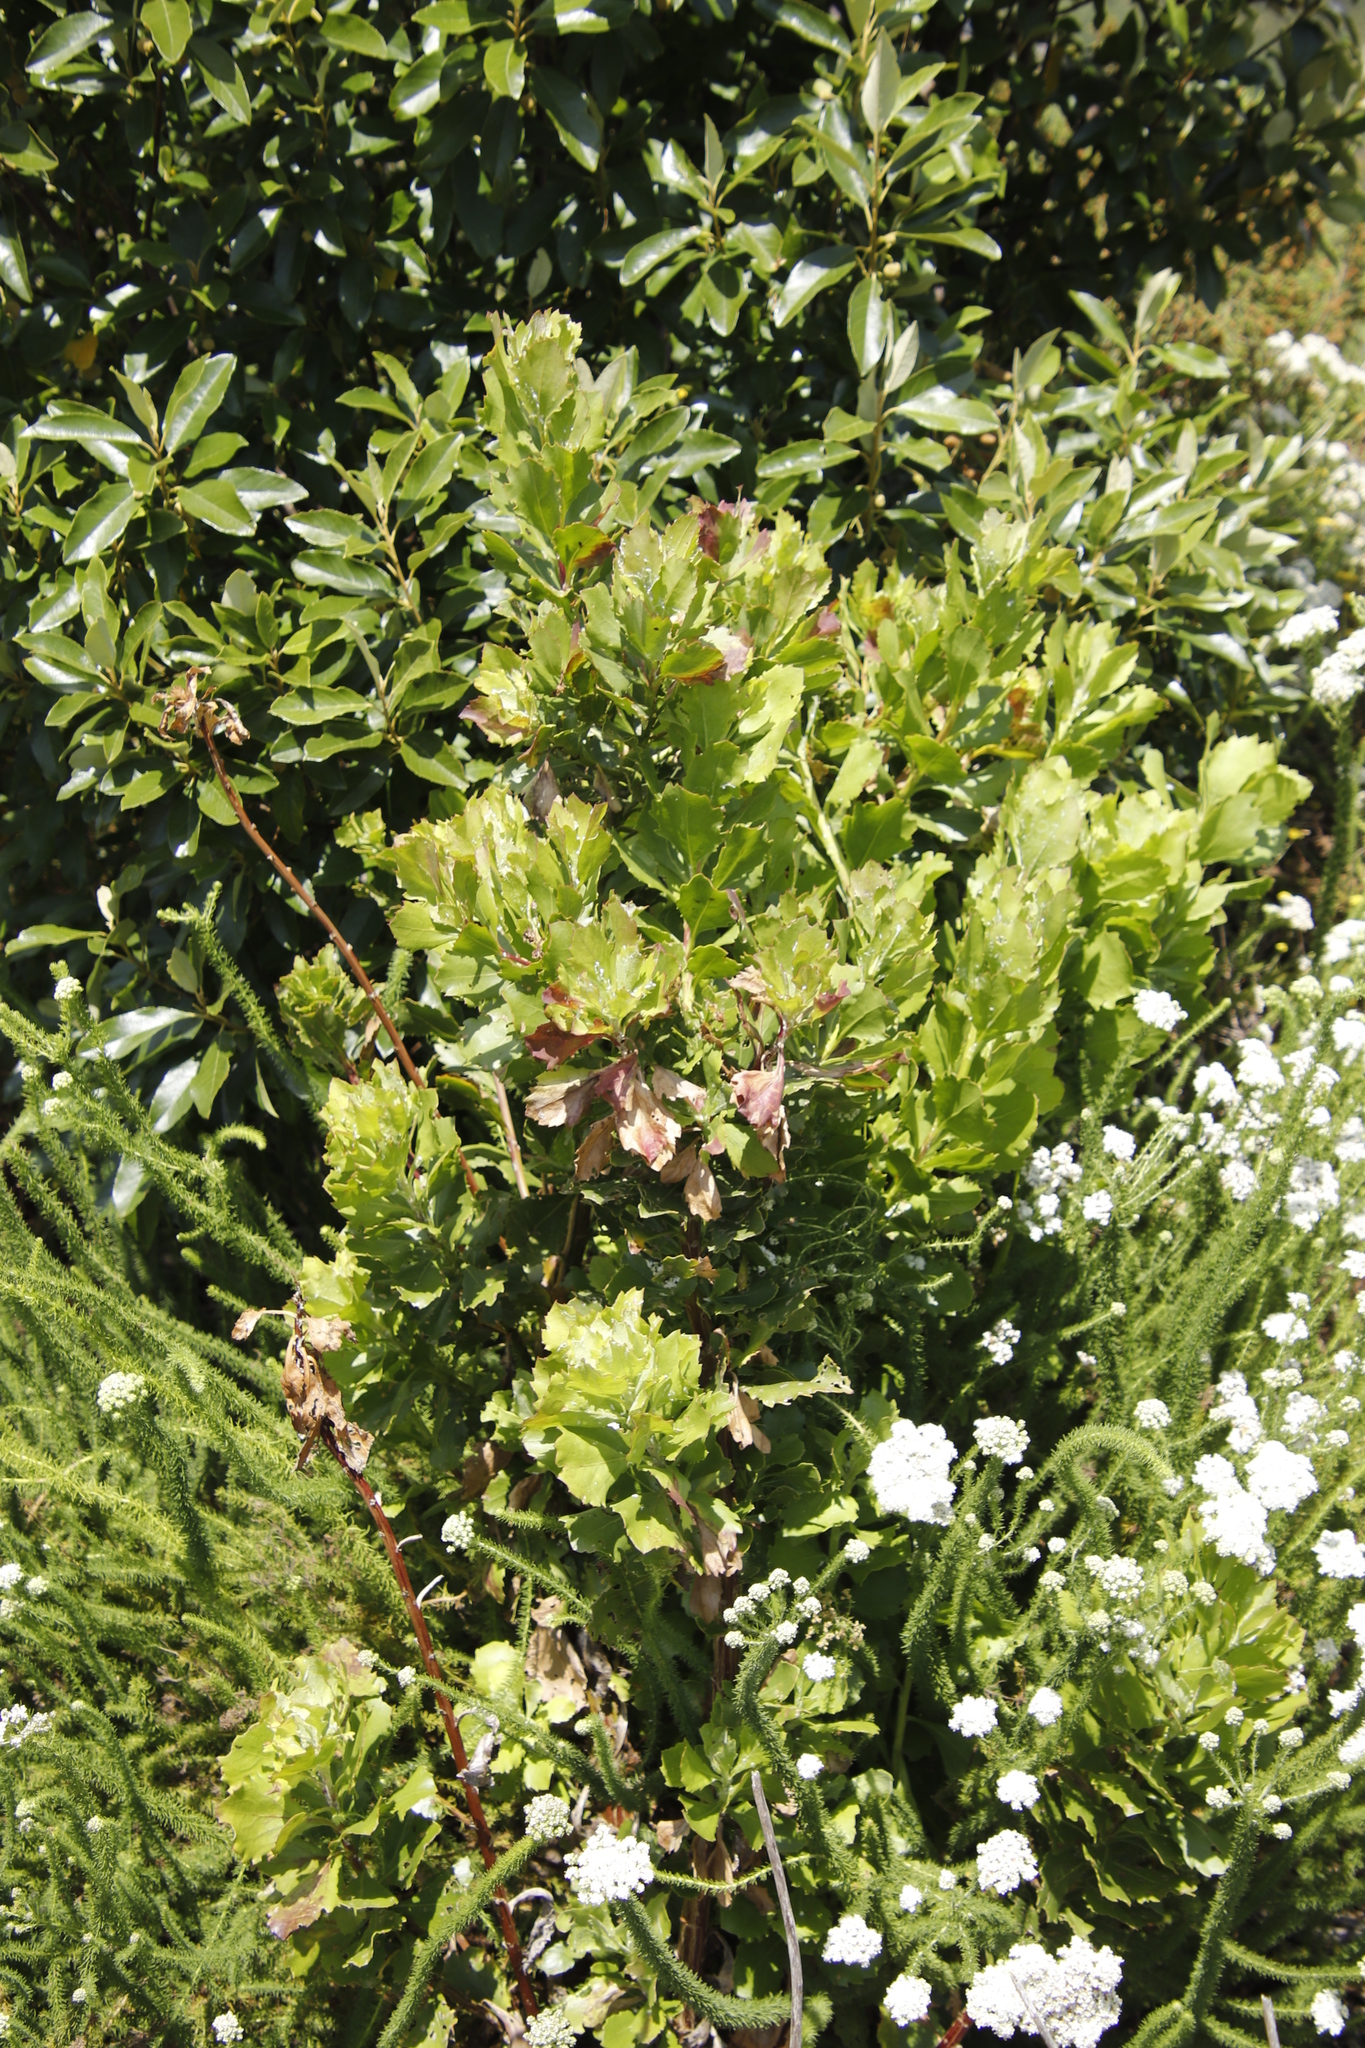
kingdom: Plantae
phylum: Tracheophyta
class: Magnoliopsida
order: Asterales
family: Asteraceae
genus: Osteospermum
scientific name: Osteospermum moniliferum
